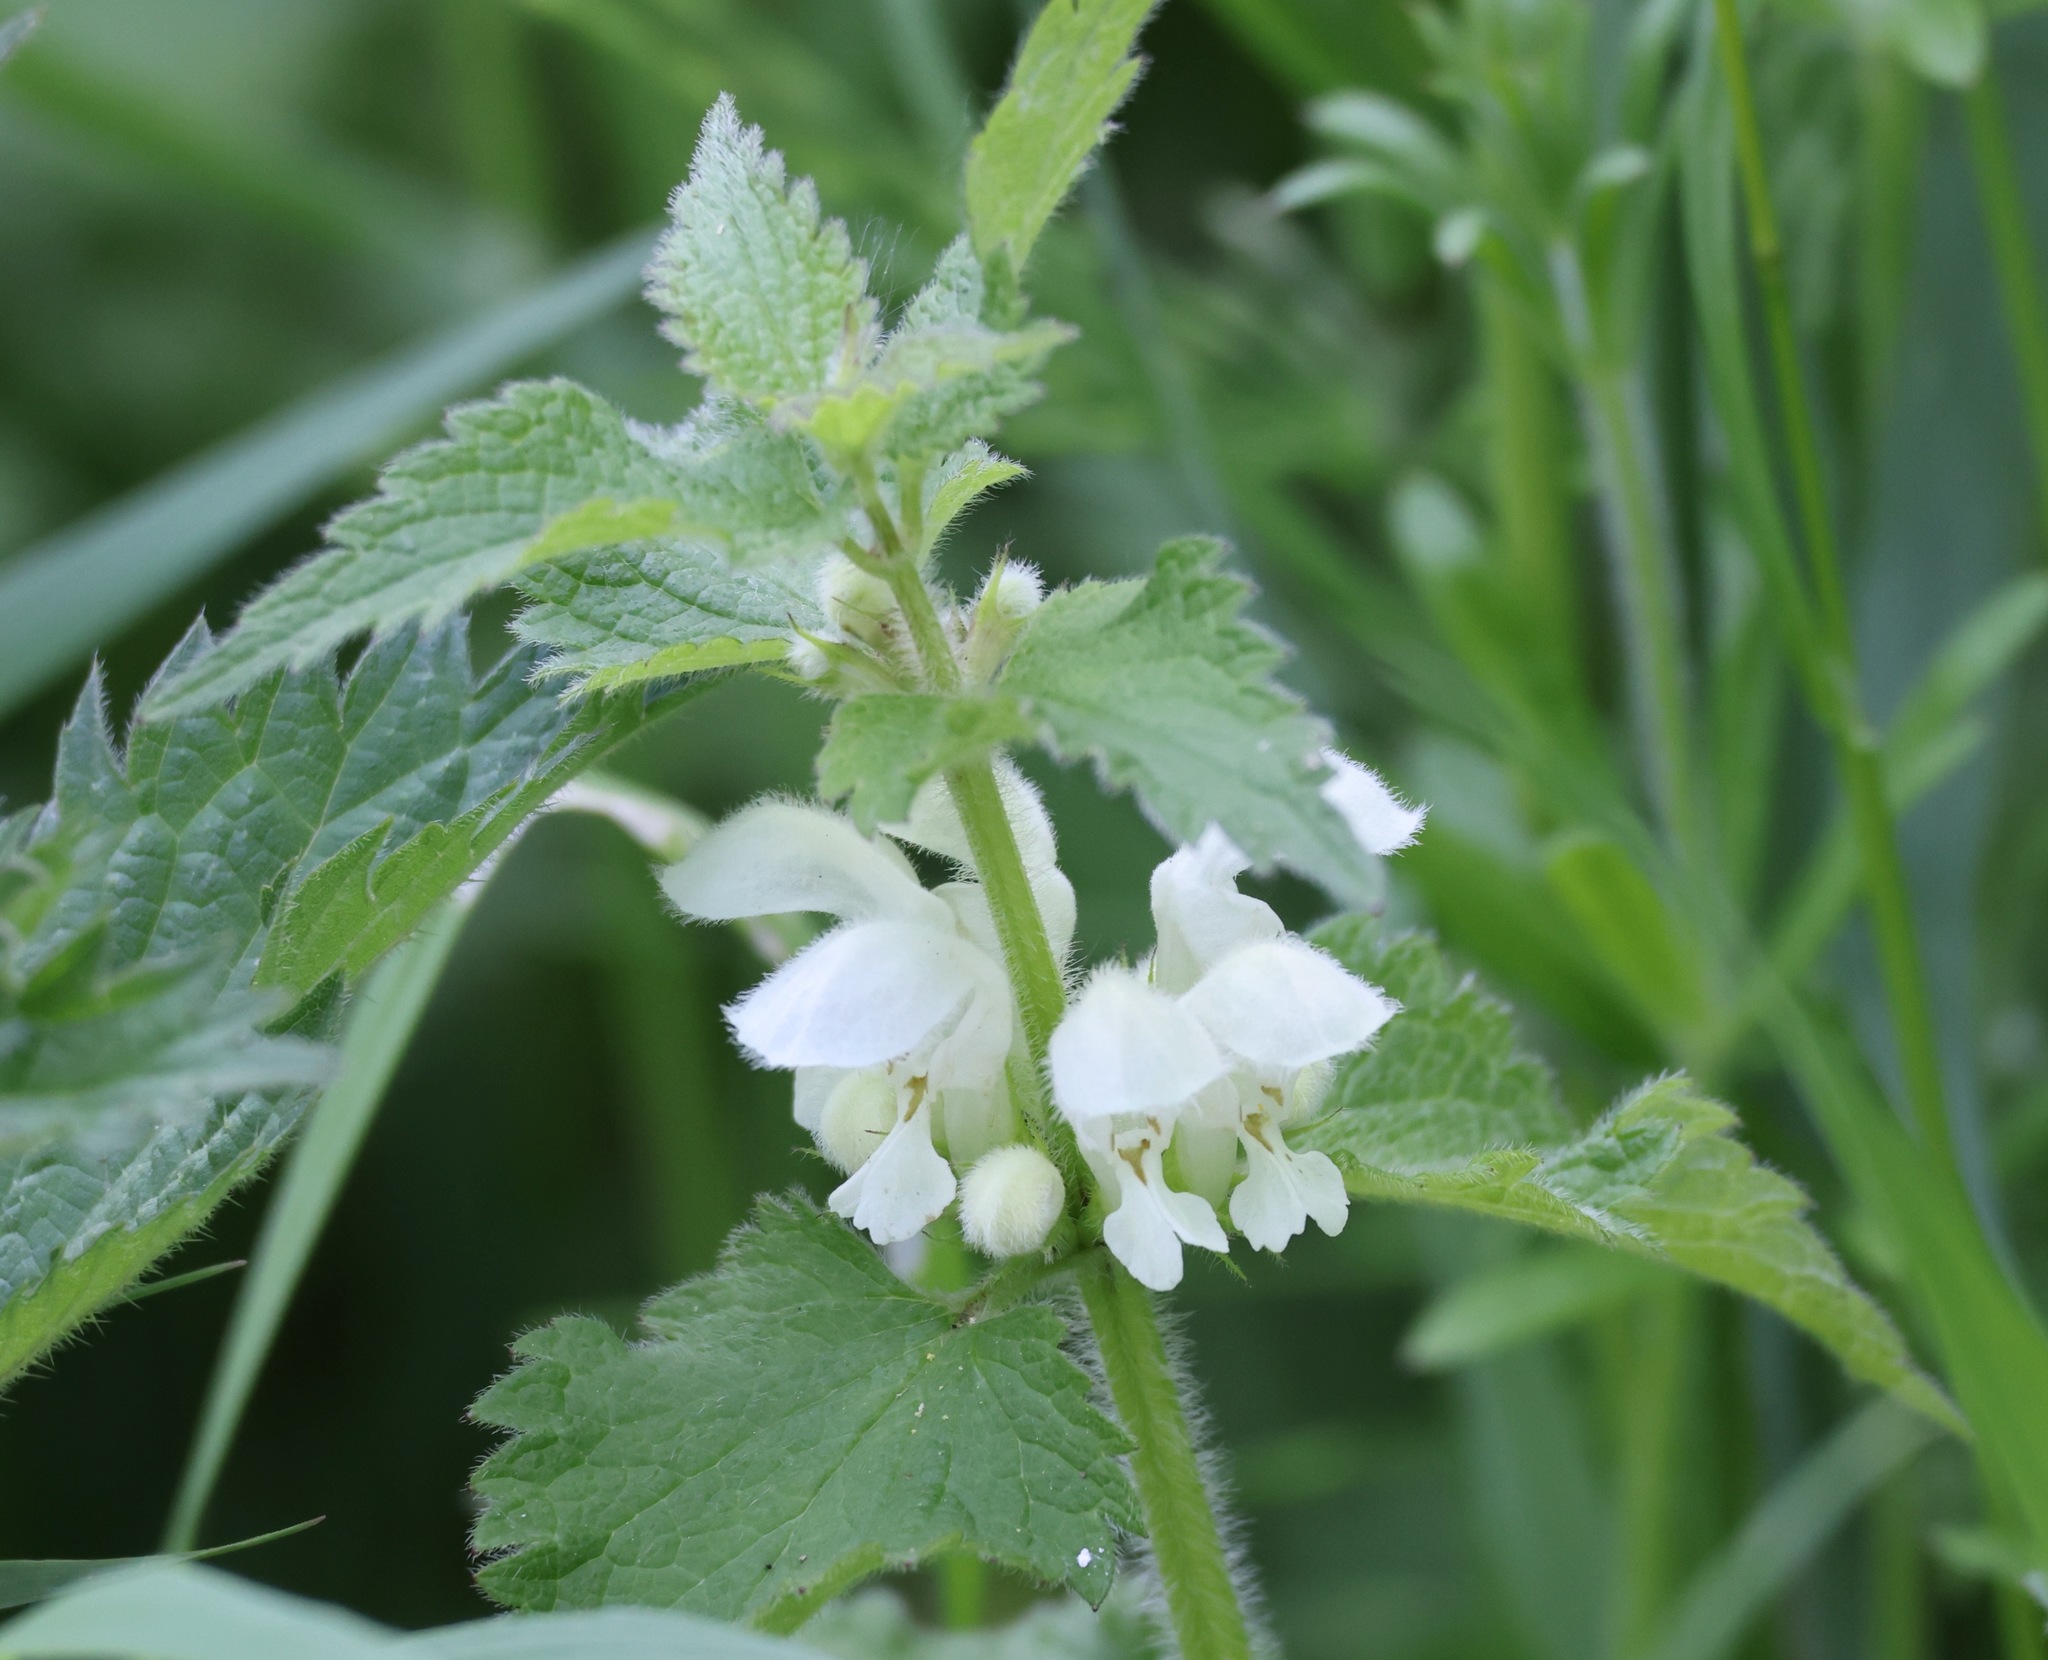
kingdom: Plantae
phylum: Tracheophyta
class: Magnoliopsida
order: Lamiales
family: Lamiaceae
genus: Lamium
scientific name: Lamium album
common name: White dead-nettle
